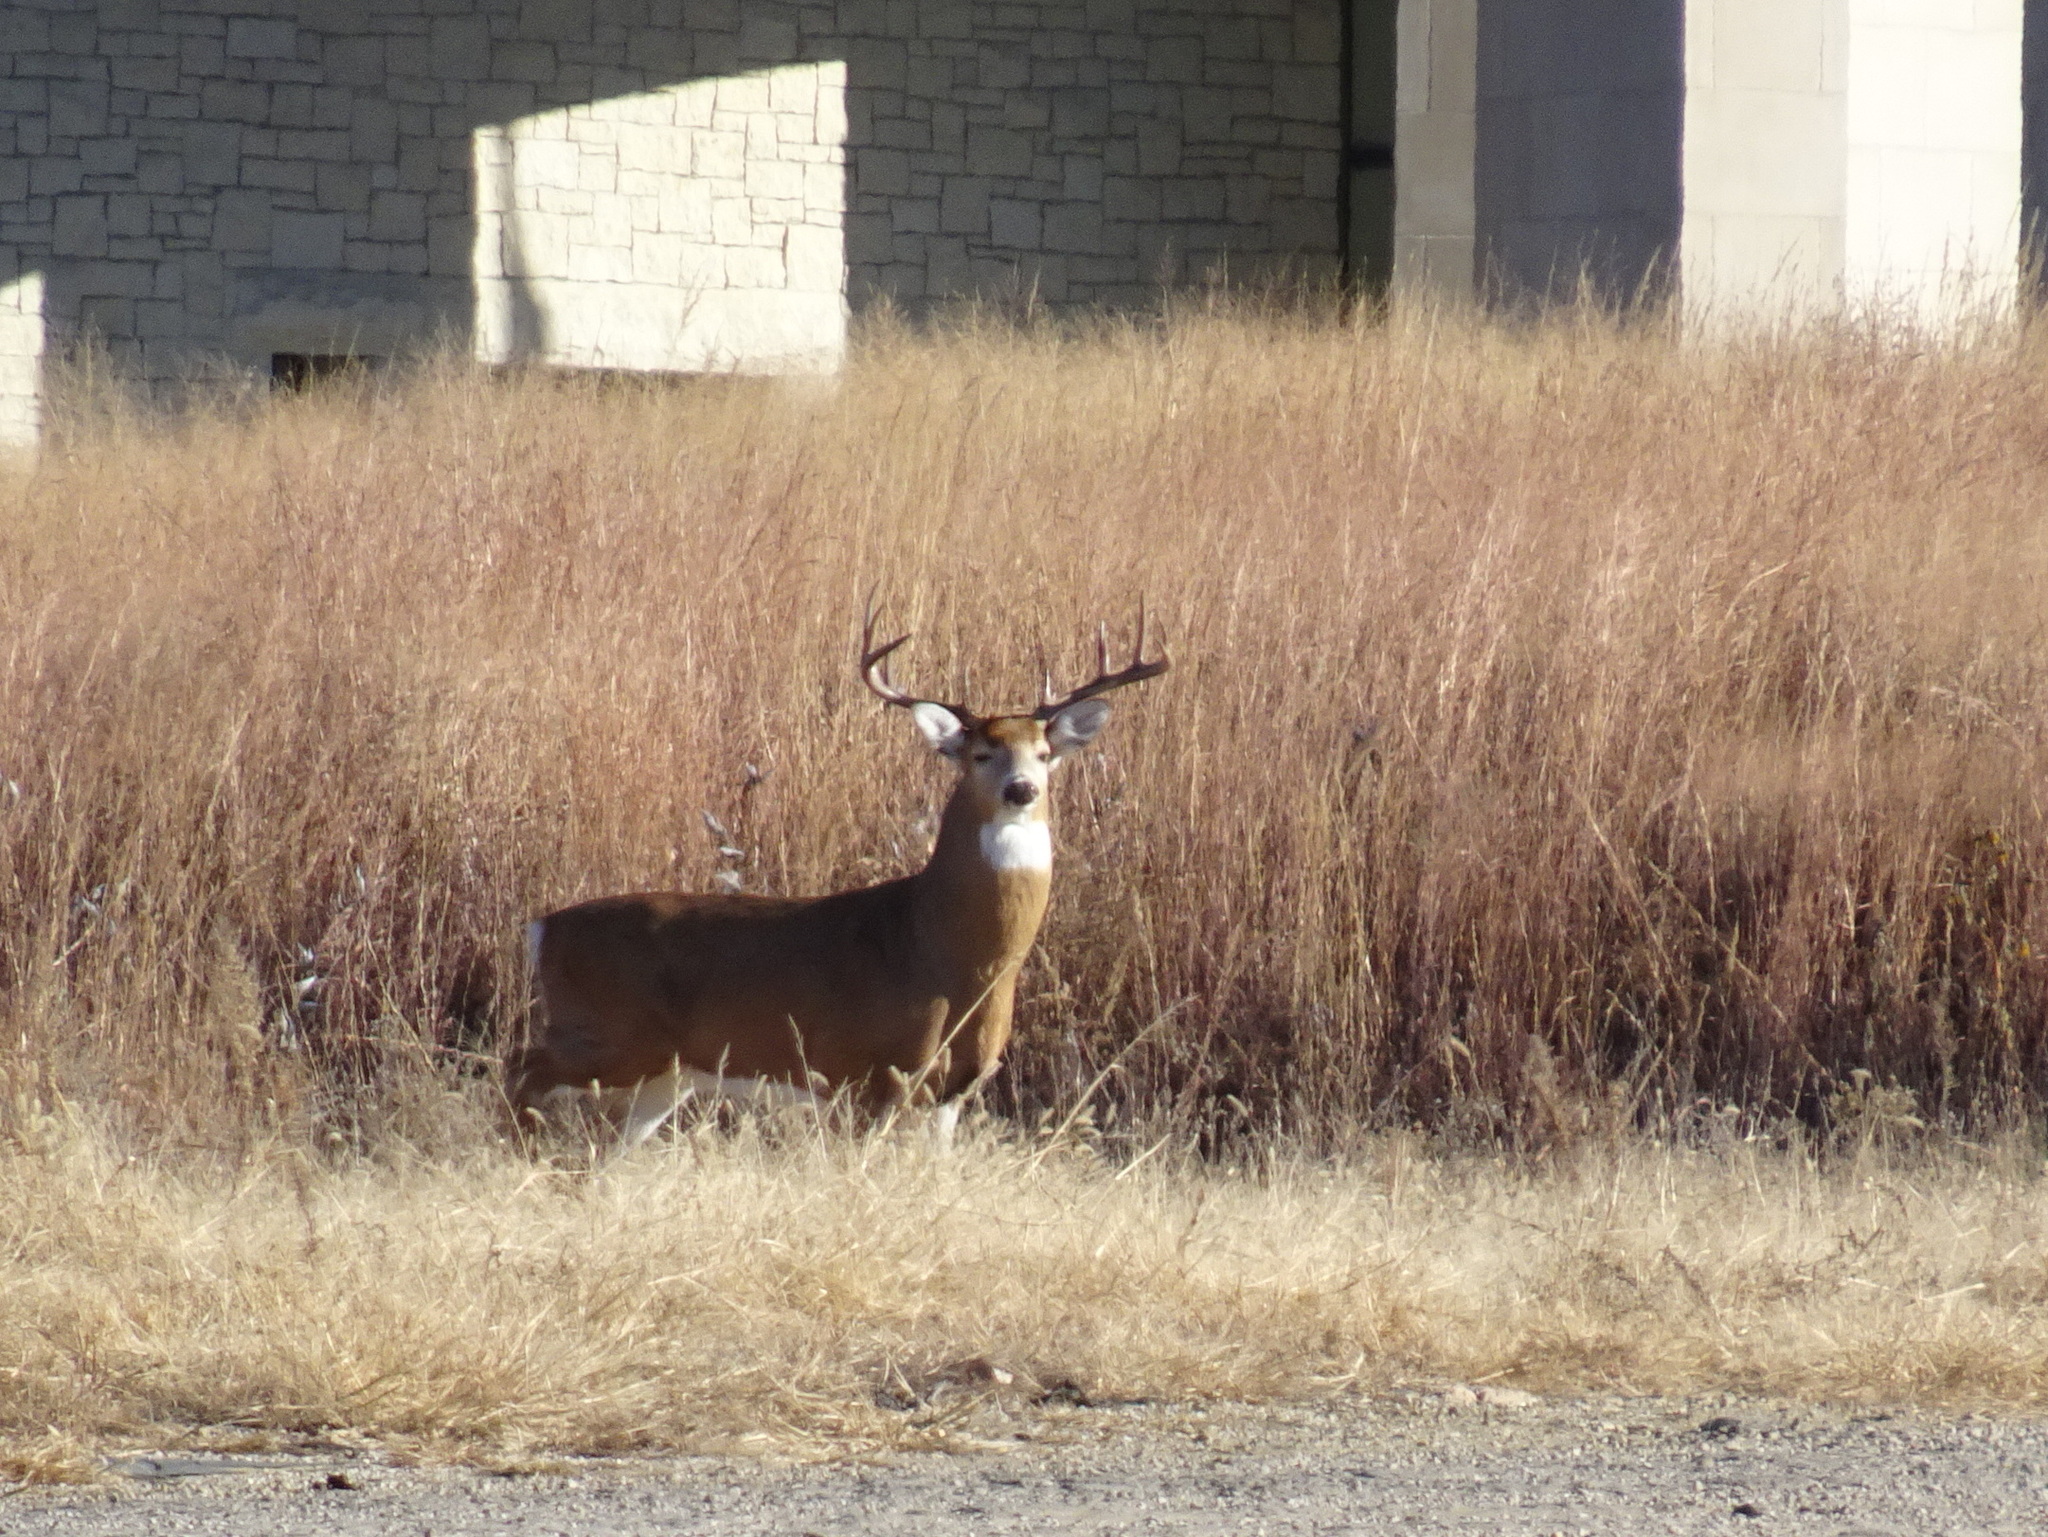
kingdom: Animalia
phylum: Chordata
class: Mammalia
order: Artiodactyla
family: Cervidae
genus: Odocoileus
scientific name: Odocoileus virginianus
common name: White-tailed deer
